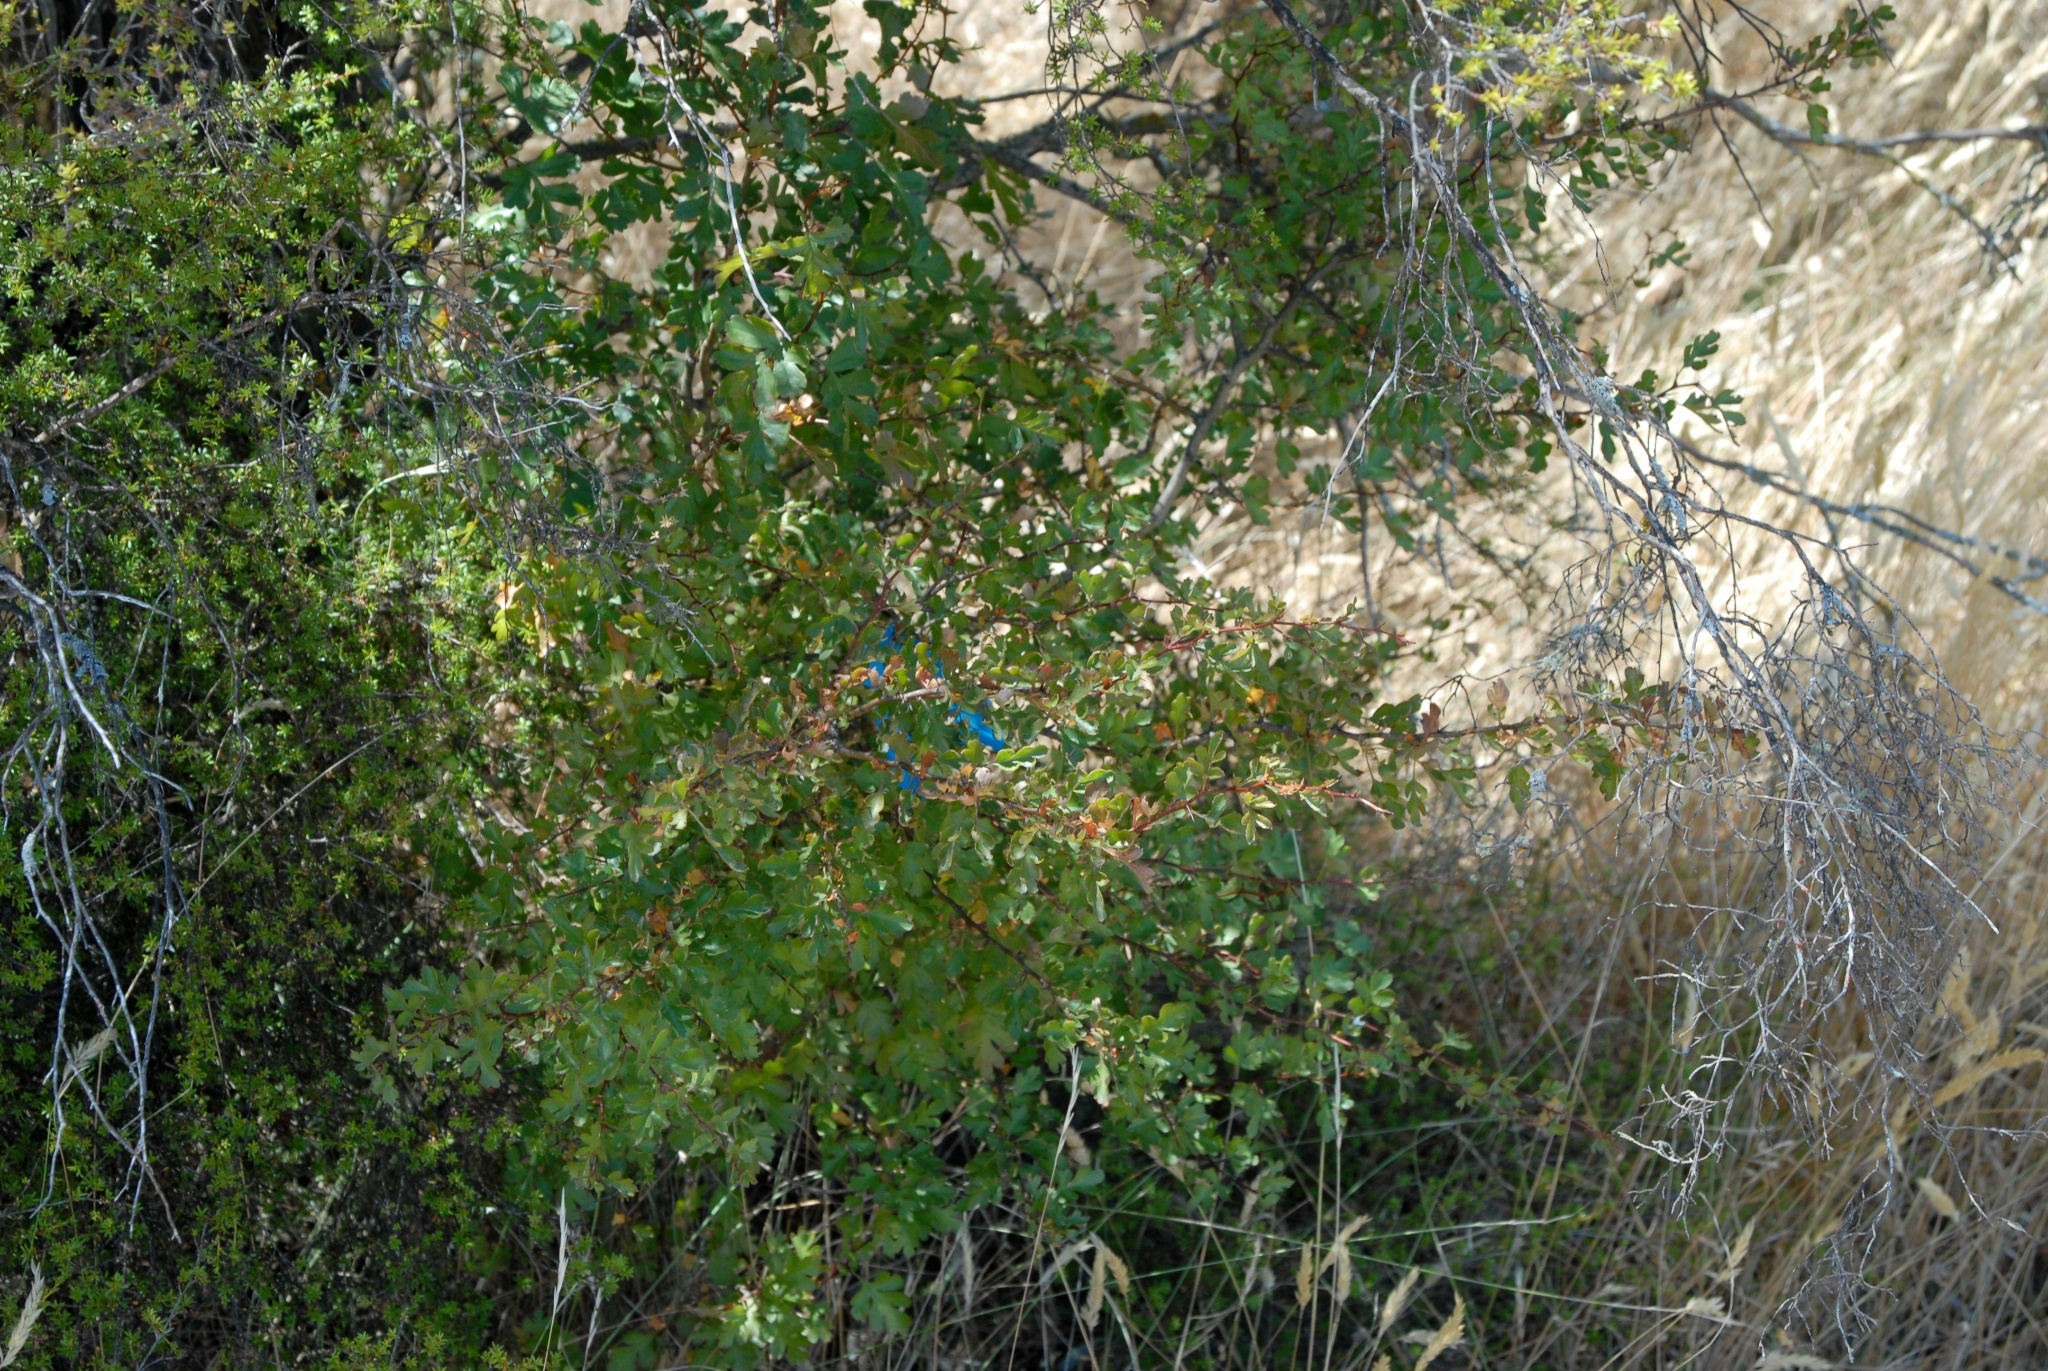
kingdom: Plantae
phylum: Tracheophyta
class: Magnoliopsida
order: Rosales
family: Rosaceae
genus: Crataegus
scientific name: Crataegus monogyna
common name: Hawthorn
